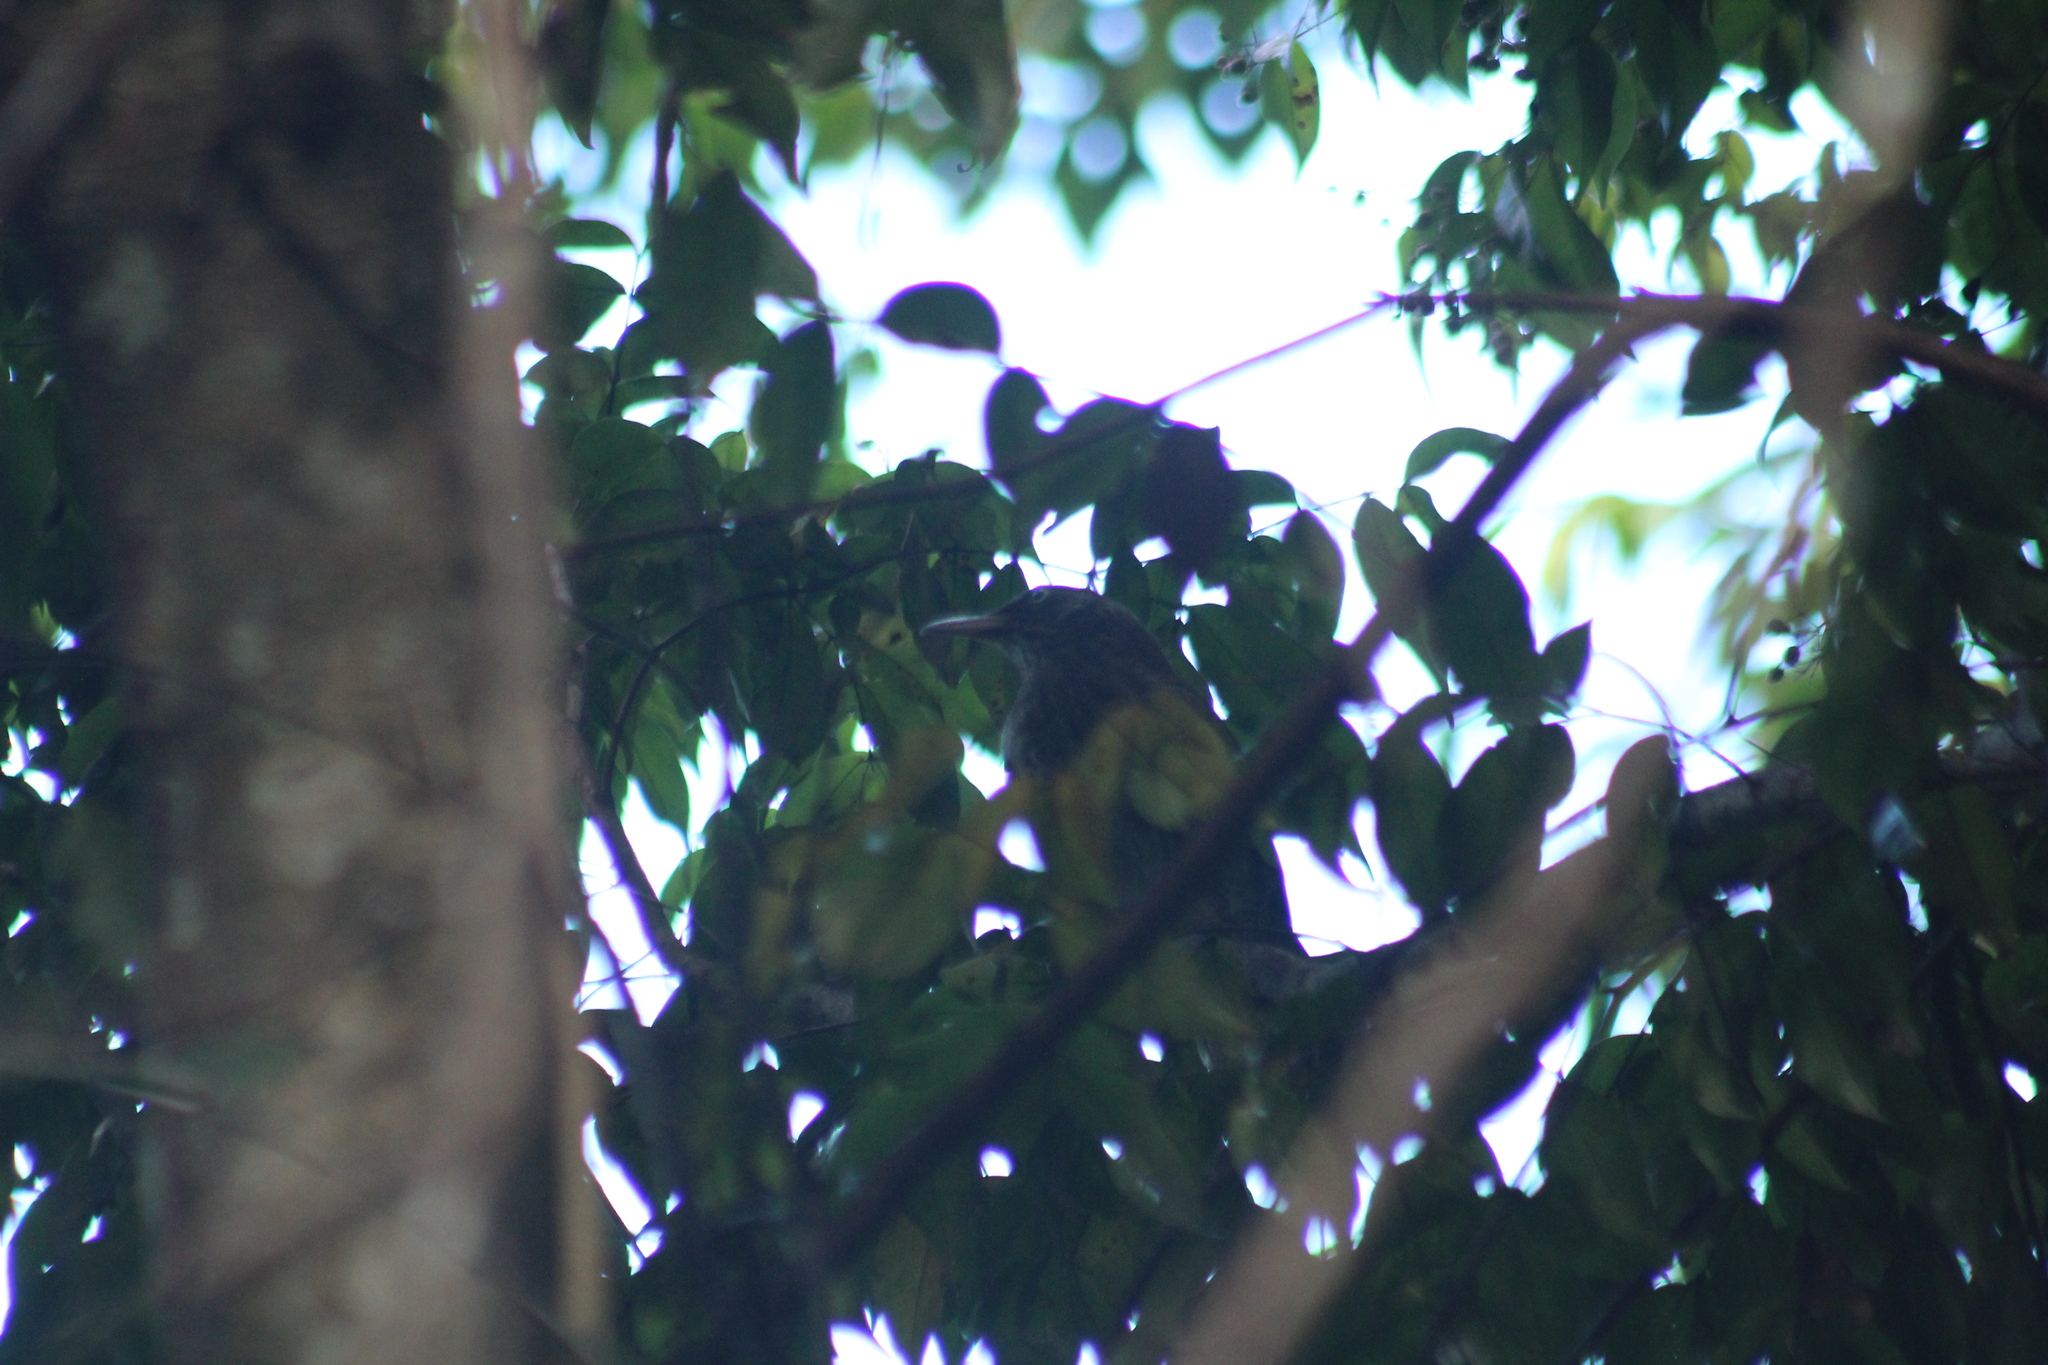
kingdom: Animalia
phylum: Chordata
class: Aves
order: Passeriformes
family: Mimidae
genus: Margarops
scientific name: Margarops fuscatus
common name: Pearly-eyed thrasher
